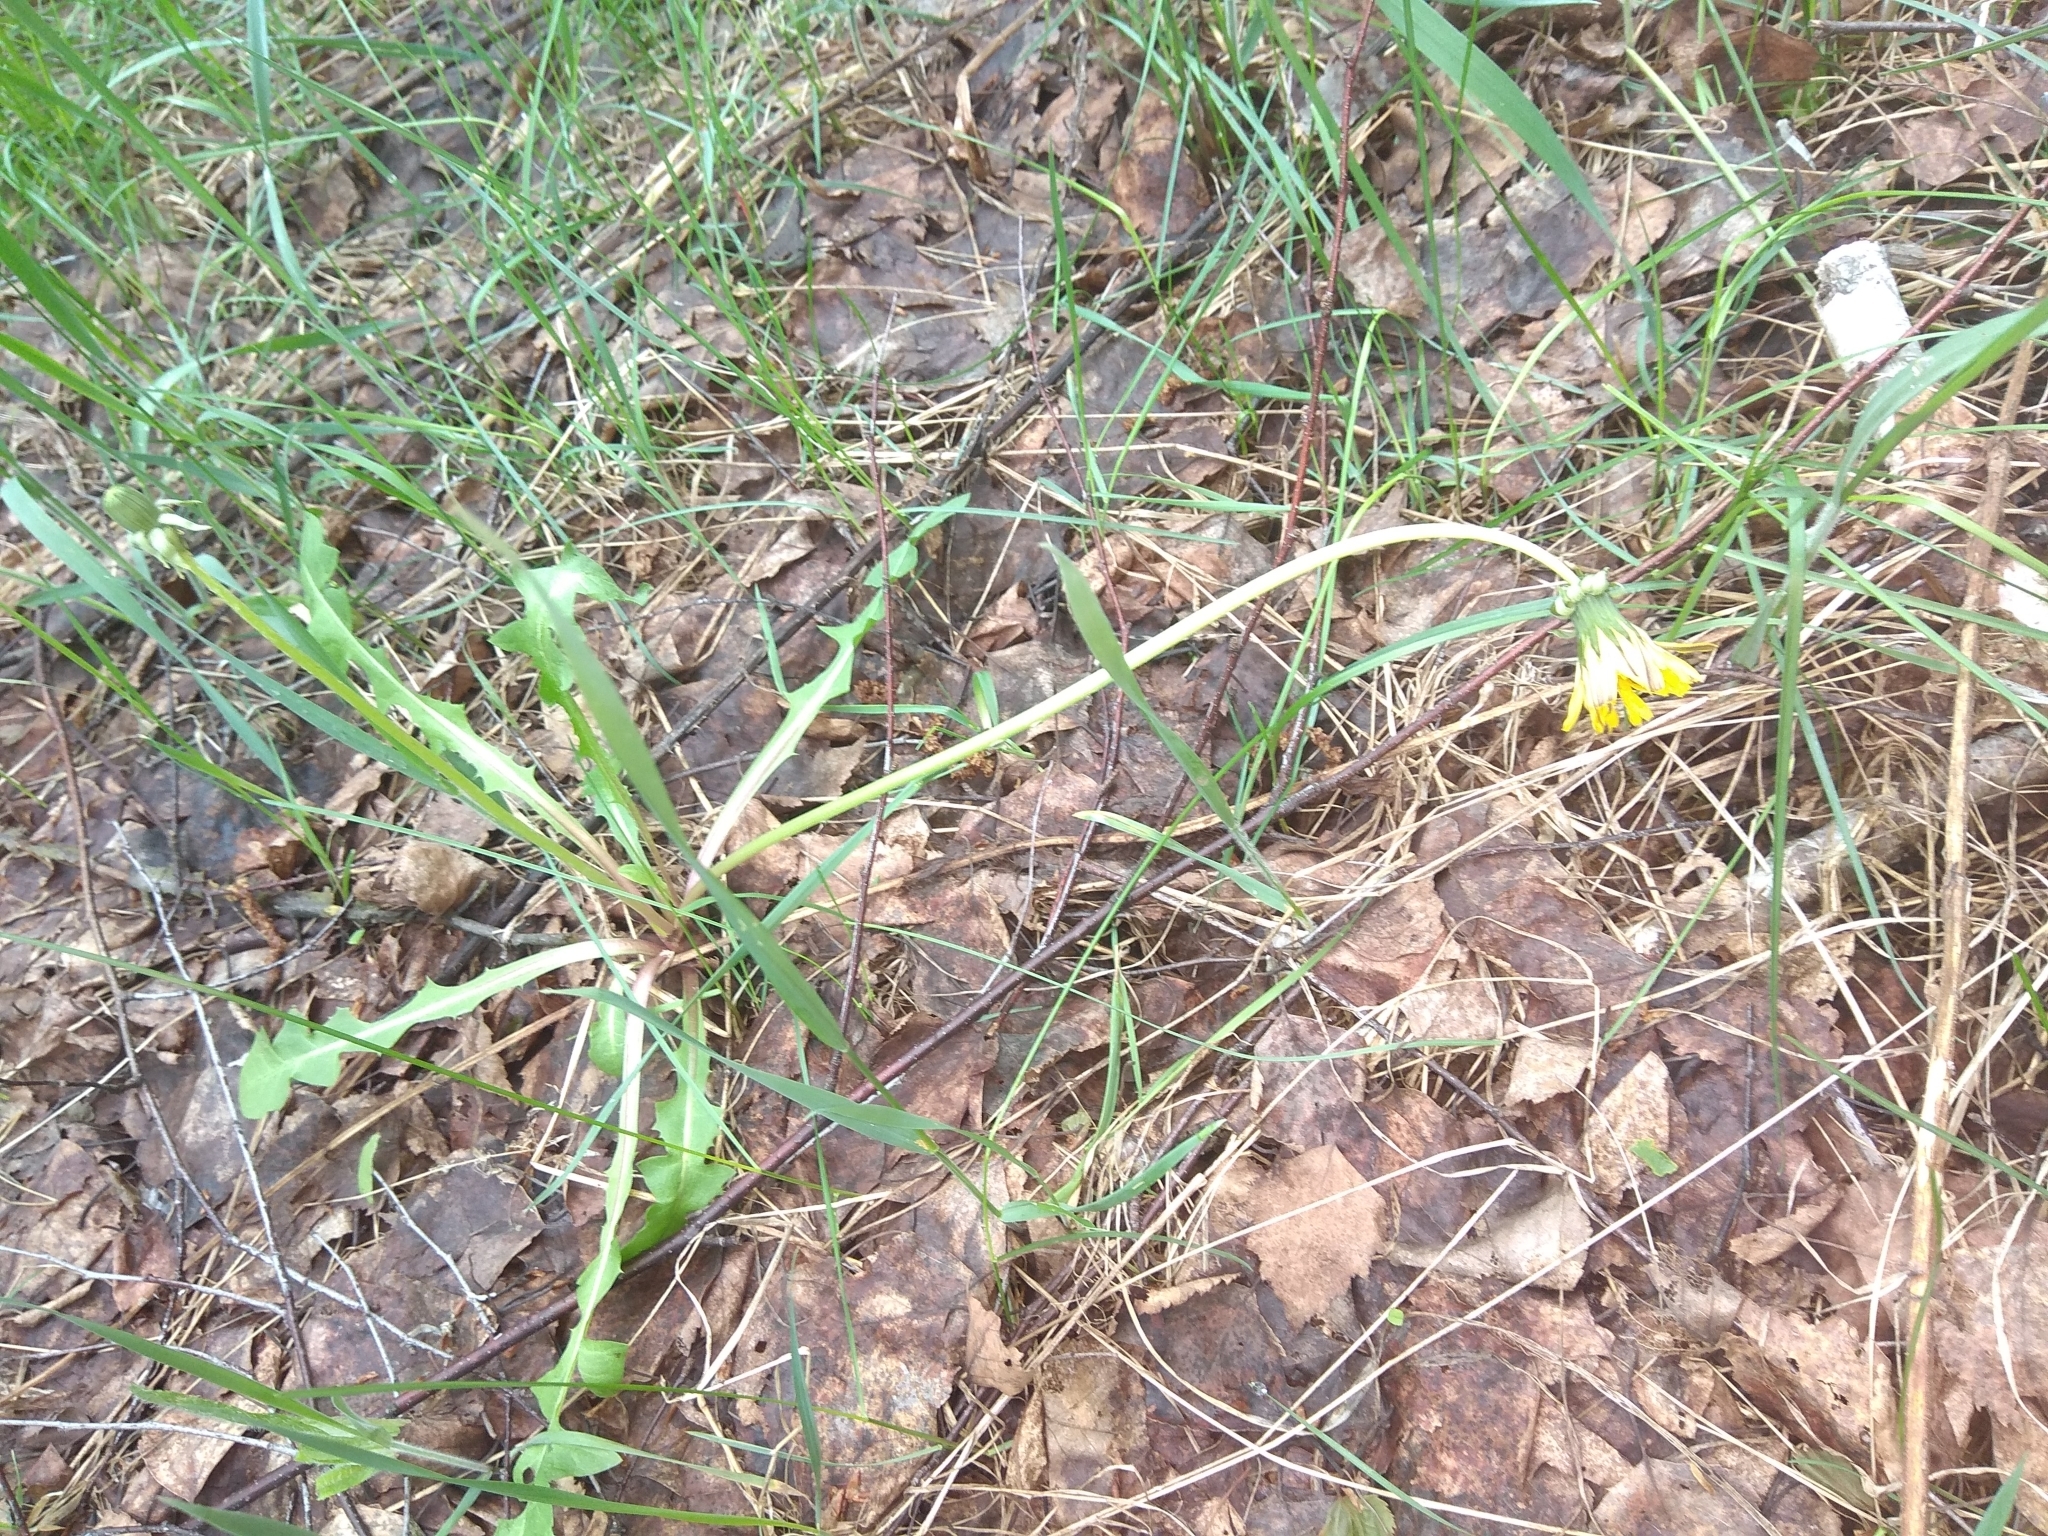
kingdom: Plantae
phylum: Tracheophyta
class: Magnoliopsida
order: Asterales
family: Asteraceae
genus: Taraxacum
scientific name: Taraxacum officinale
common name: Common dandelion
